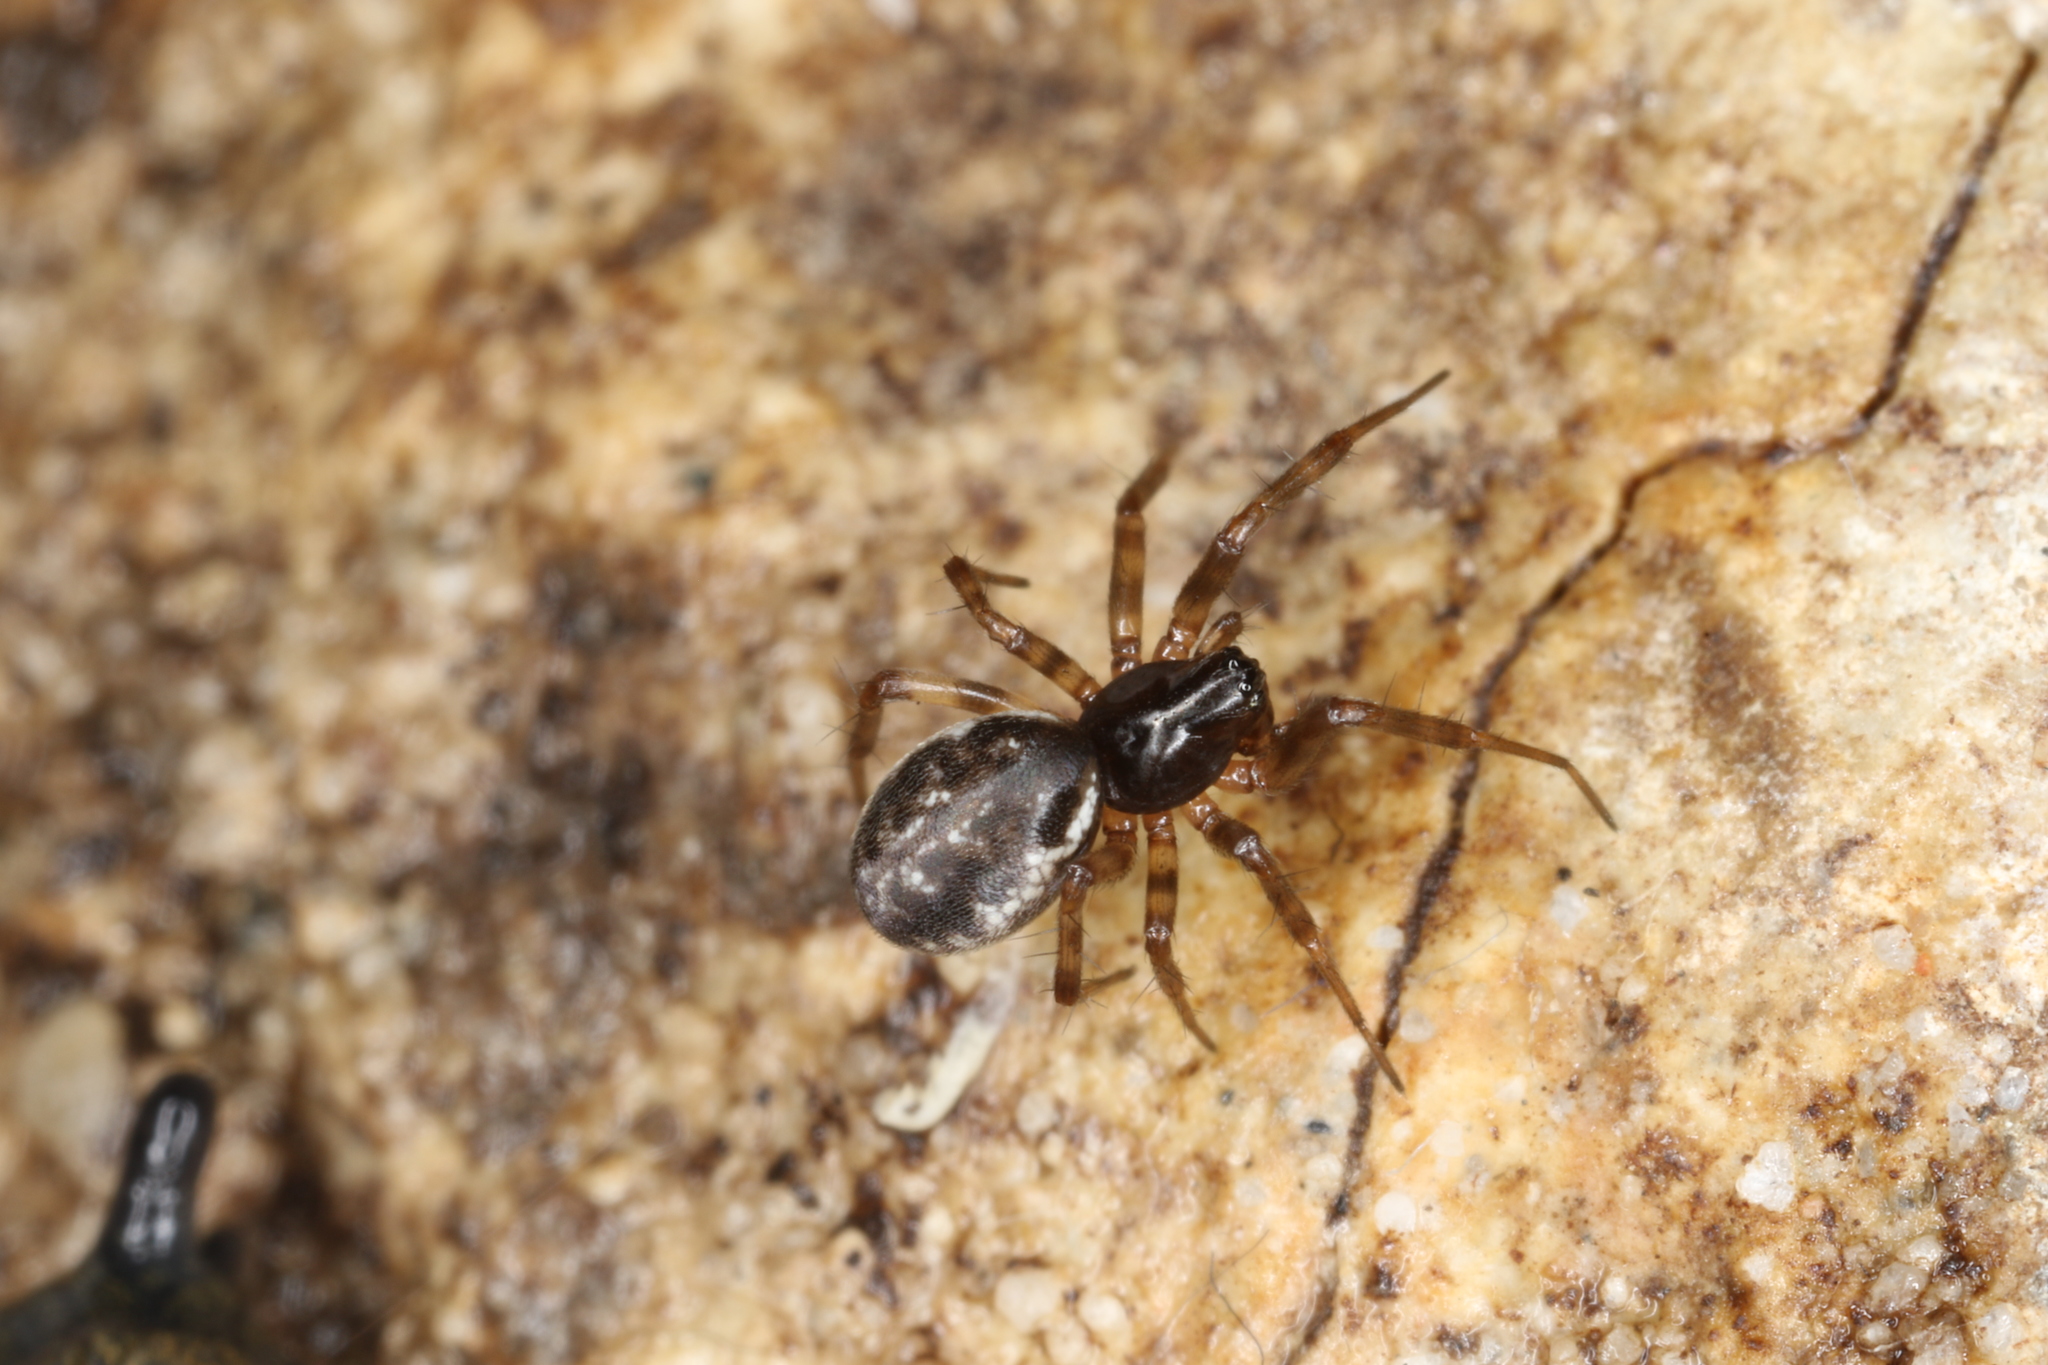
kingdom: Animalia
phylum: Arthropoda
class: Arachnida
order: Araneae
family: Linyphiidae
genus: Neriene
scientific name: Neriene montana
